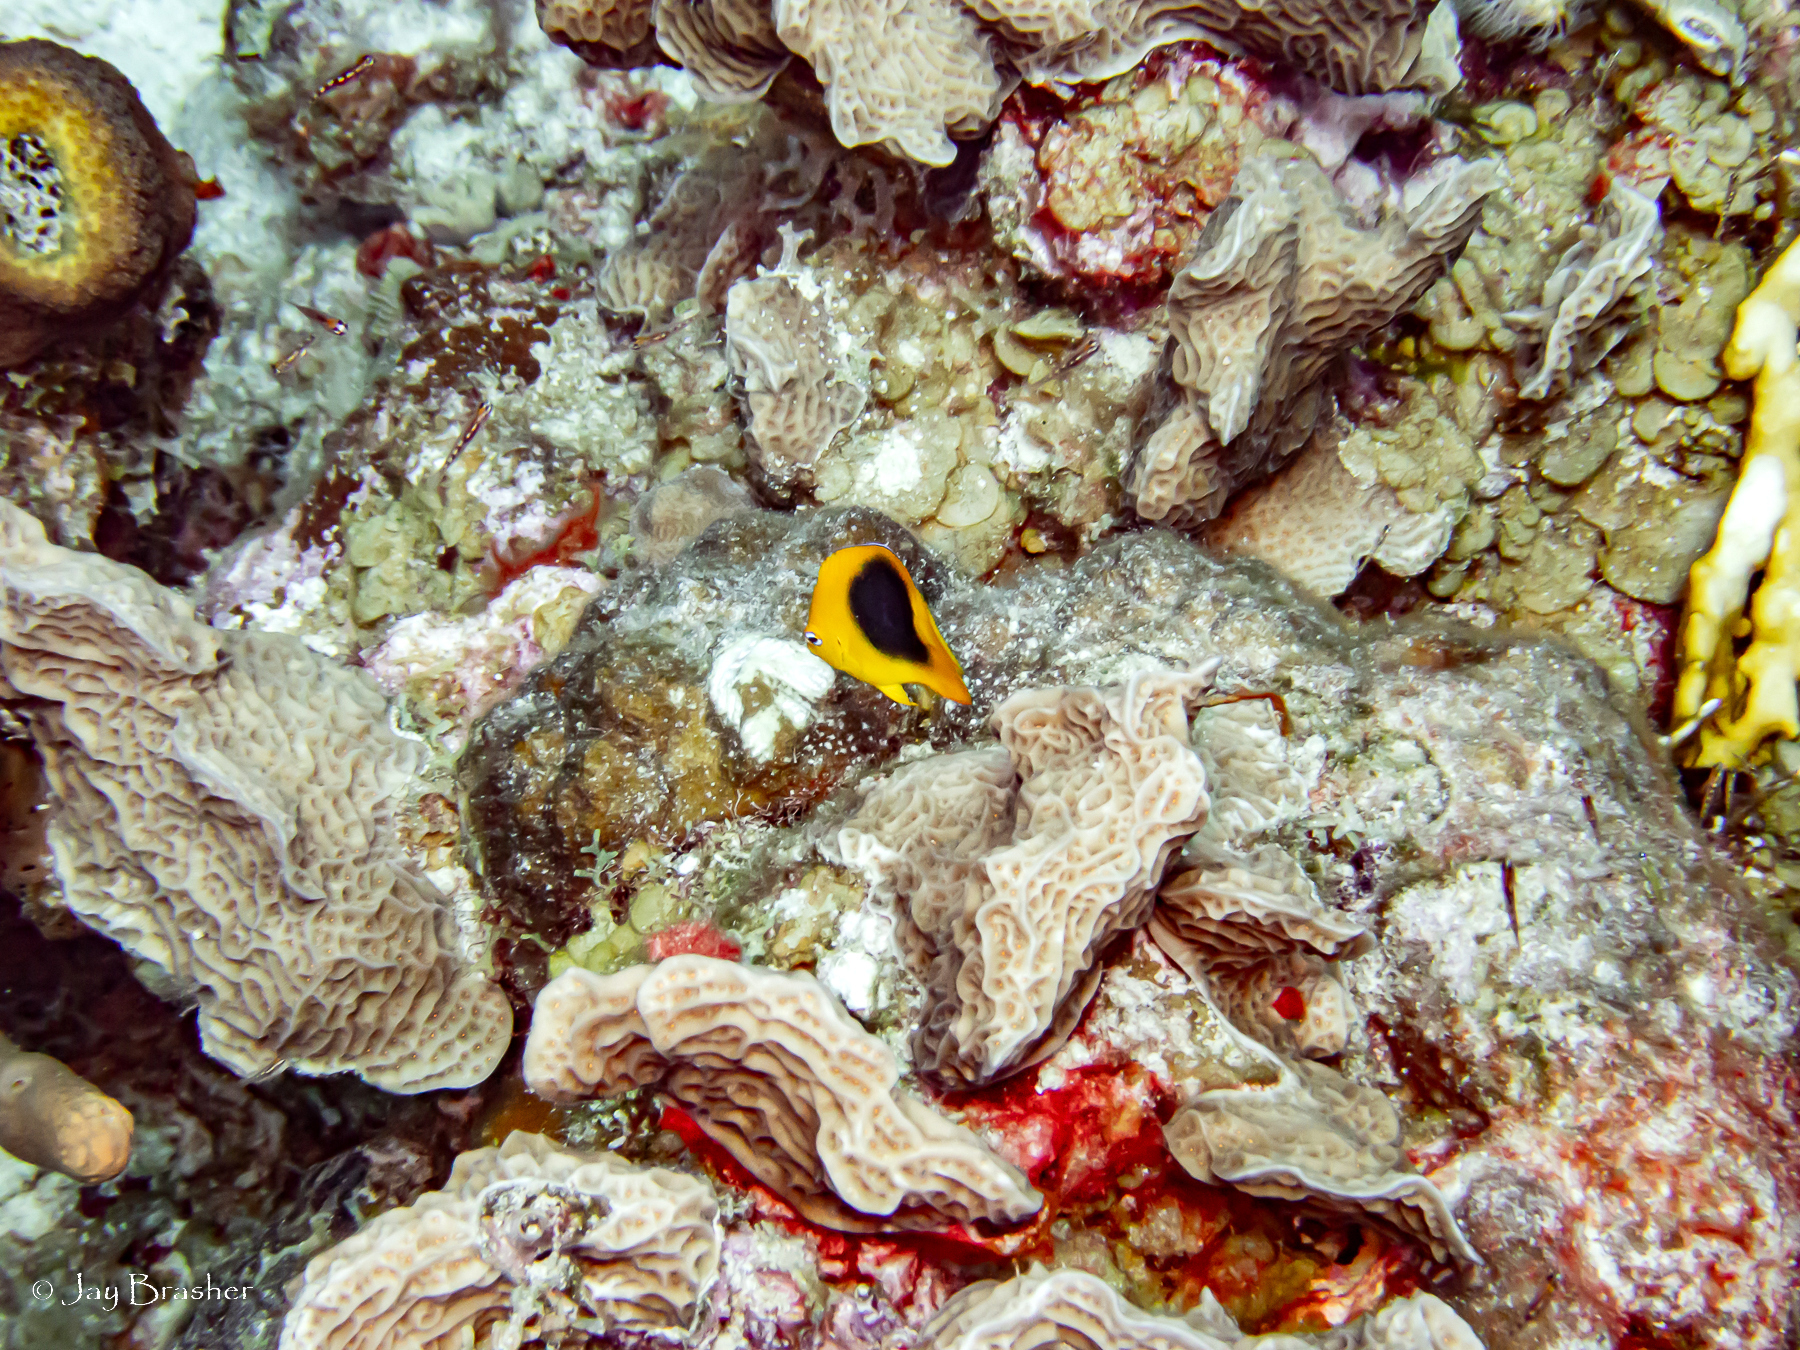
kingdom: Animalia
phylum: Chordata
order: Perciformes
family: Pomacanthidae
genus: Holacanthus
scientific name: Holacanthus tricolor
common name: Rock beauty
